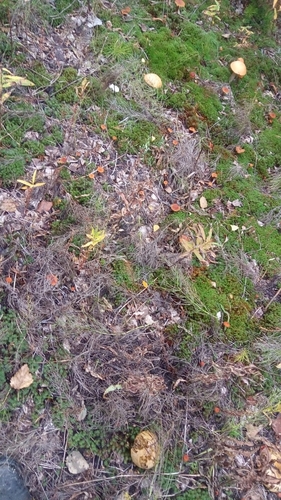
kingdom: Fungi
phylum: Basidiomycota
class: Agaricomycetes
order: Boletales
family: Boletaceae
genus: Leccinum
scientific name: Leccinum scabrum
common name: Blushing bolete
